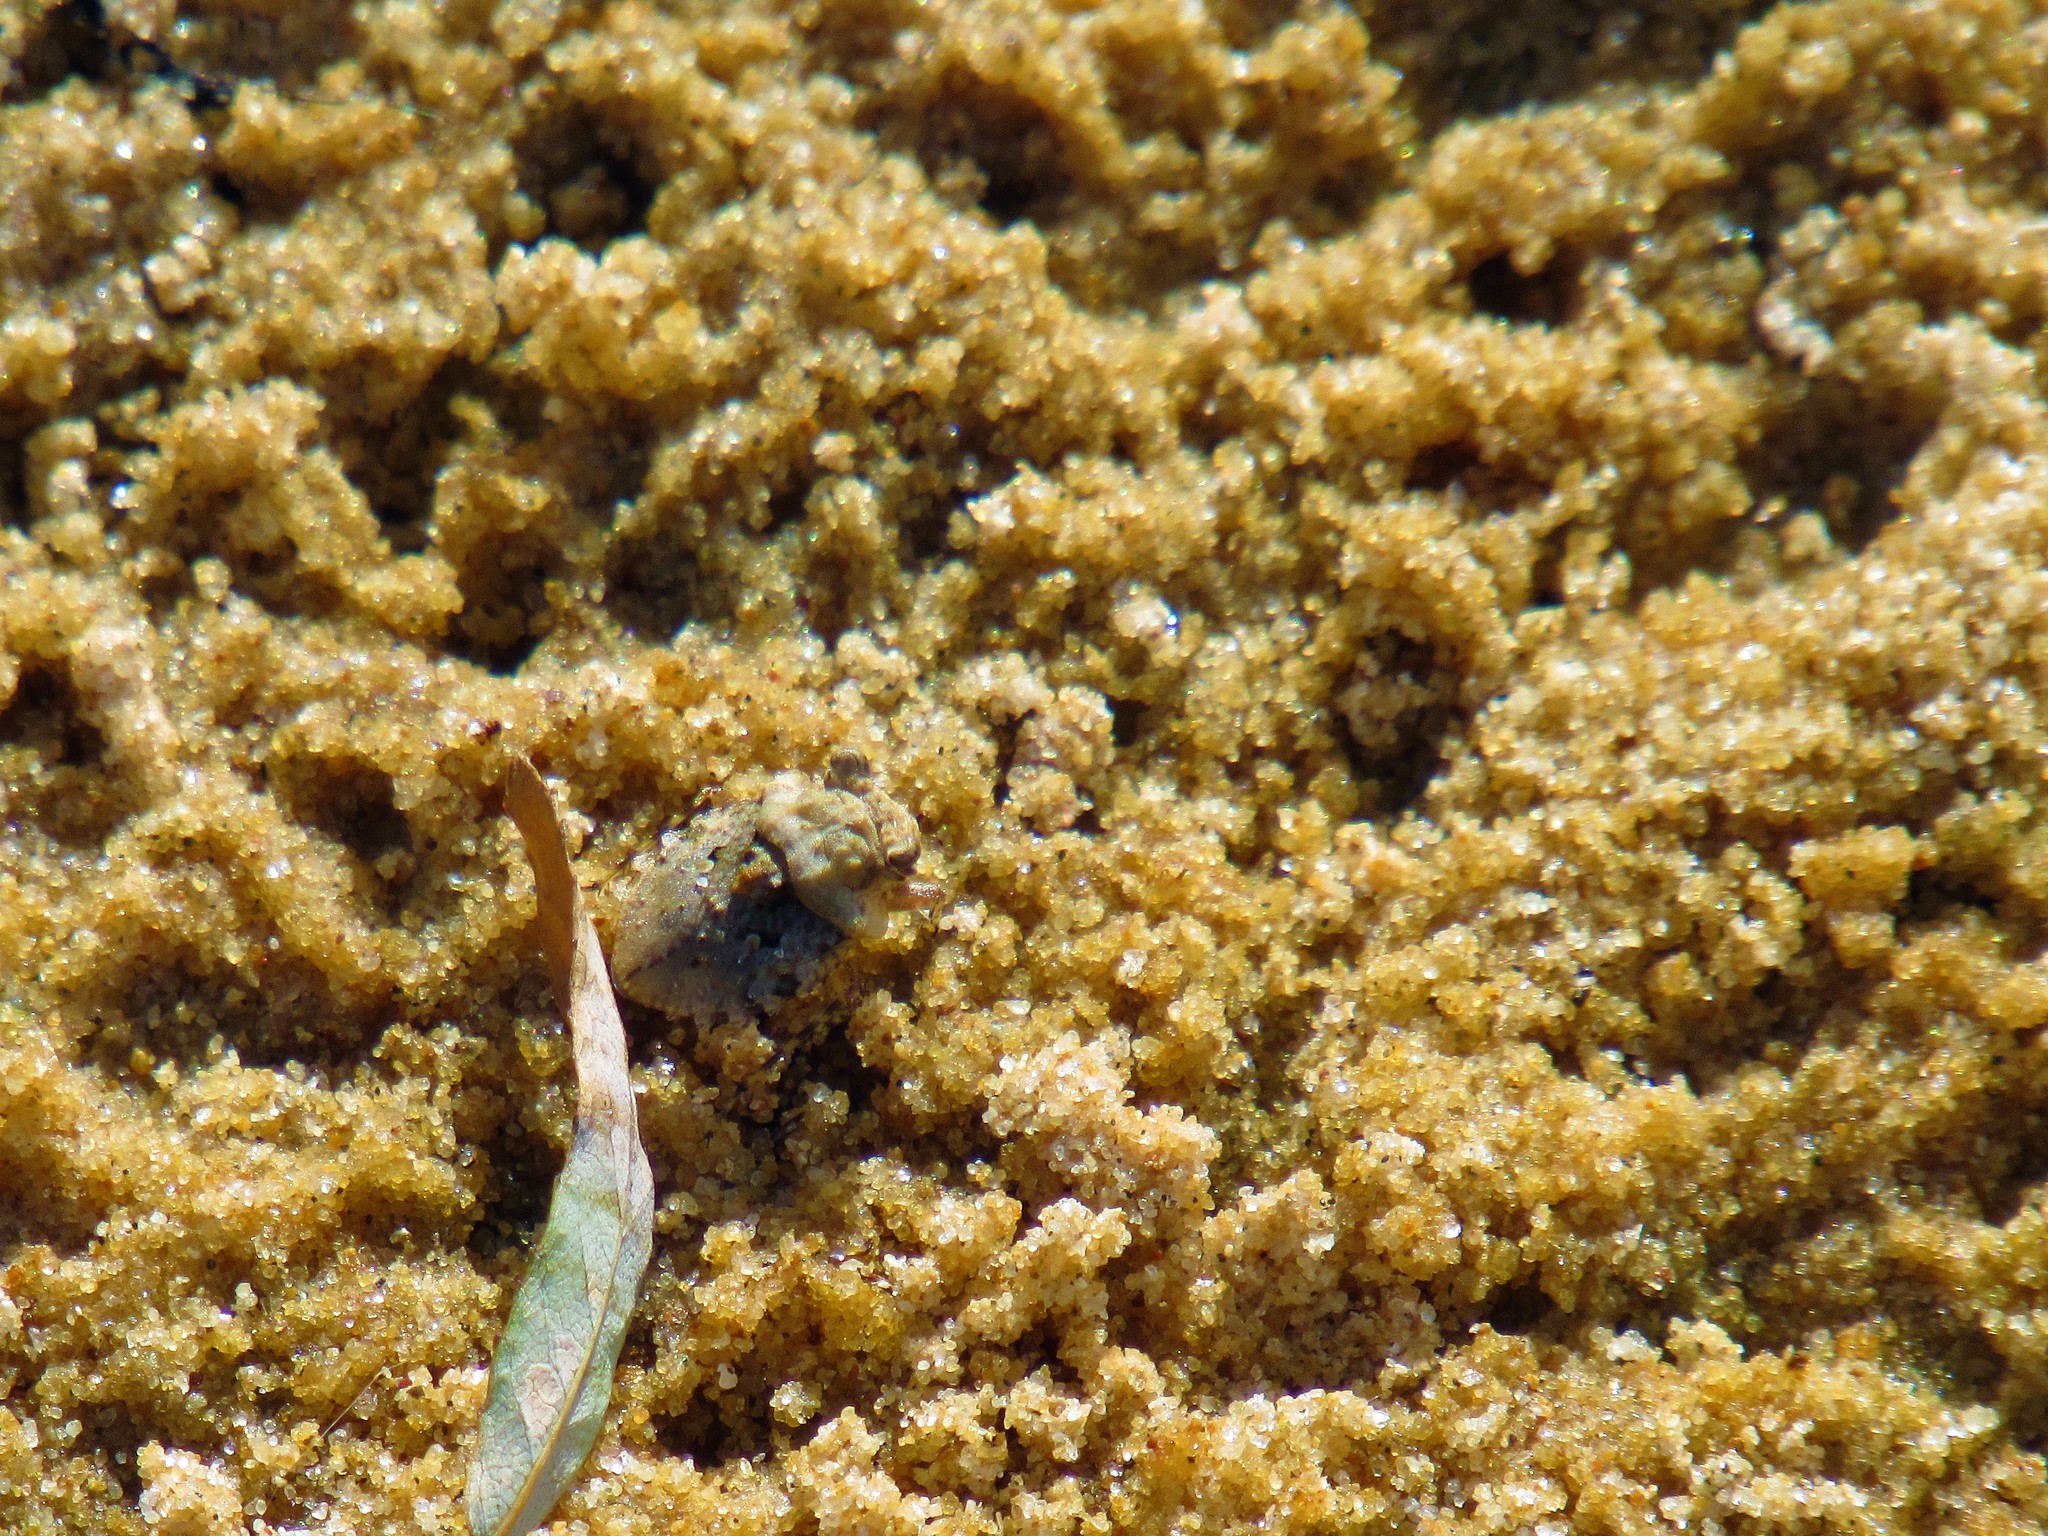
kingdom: Animalia
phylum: Arthropoda
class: Insecta
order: Hemiptera
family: Gelastocoridae
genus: Gelastocoris
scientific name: Gelastocoris oculatus
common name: Toad bug
